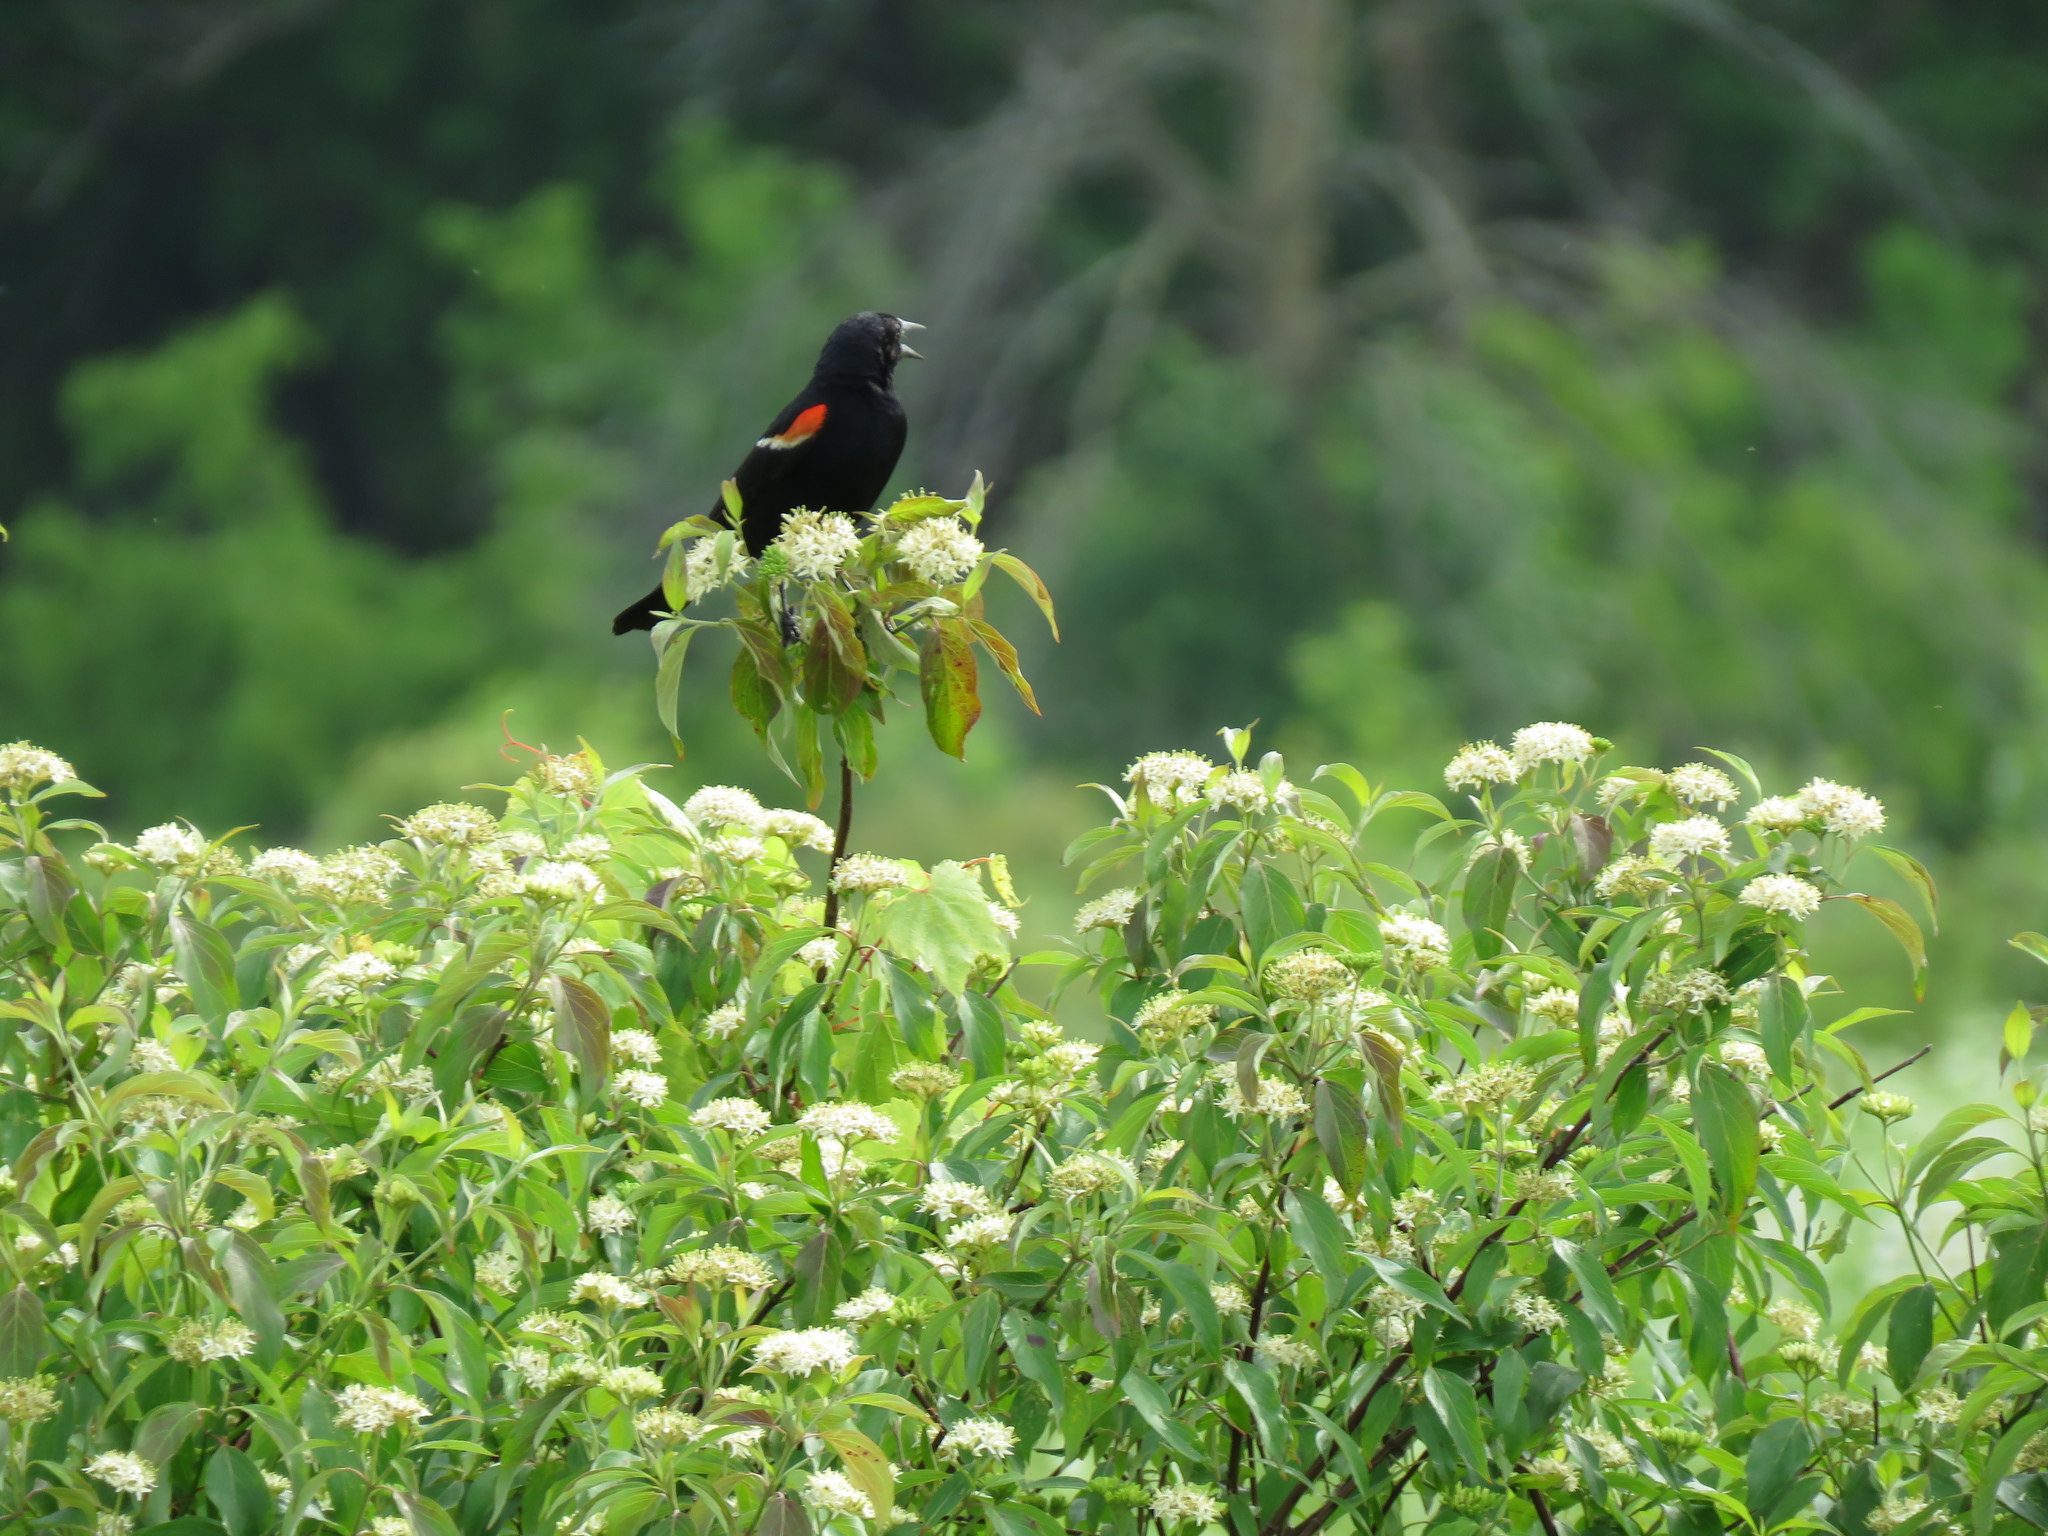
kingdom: Animalia
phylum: Chordata
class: Aves
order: Passeriformes
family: Icteridae
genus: Agelaius
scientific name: Agelaius phoeniceus
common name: Red-winged blackbird
